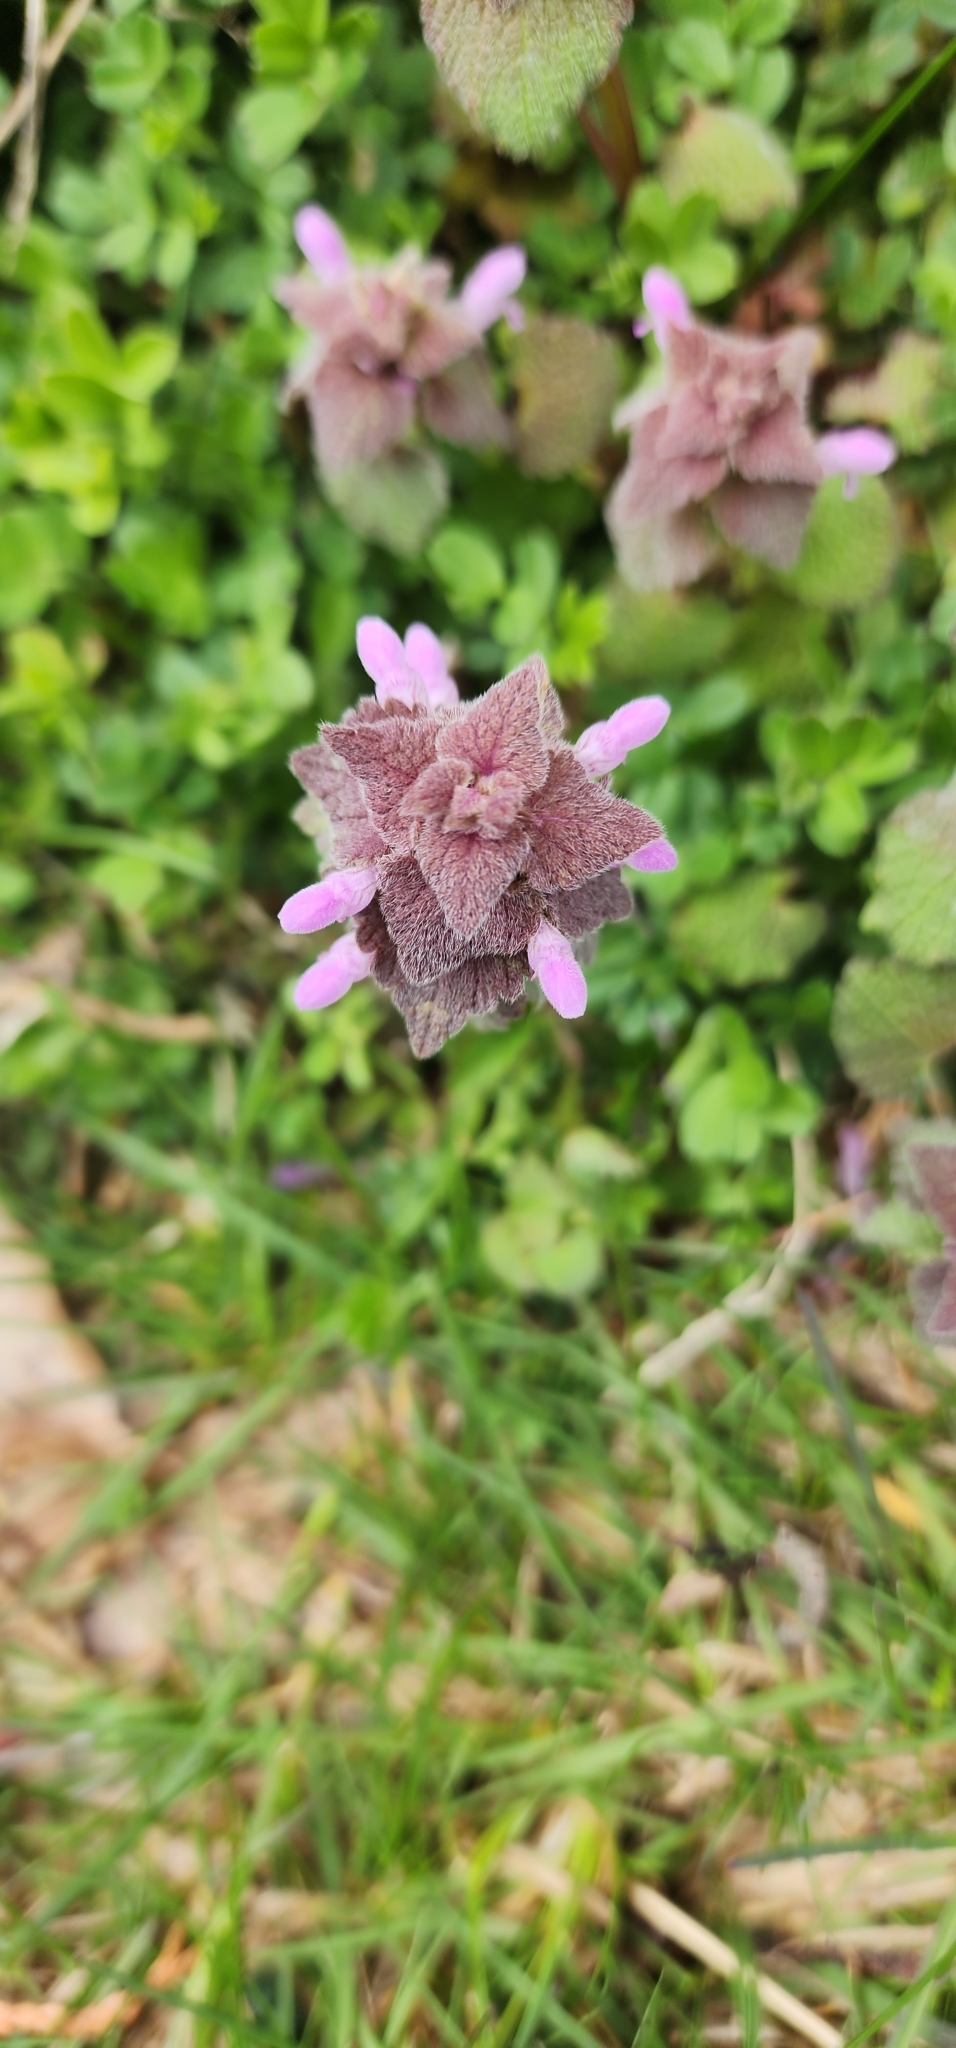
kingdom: Plantae
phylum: Tracheophyta
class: Magnoliopsida
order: Lamiales
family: Lamiaceae
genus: Lamium
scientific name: Lamium purpureum
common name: Red dead-nettle
